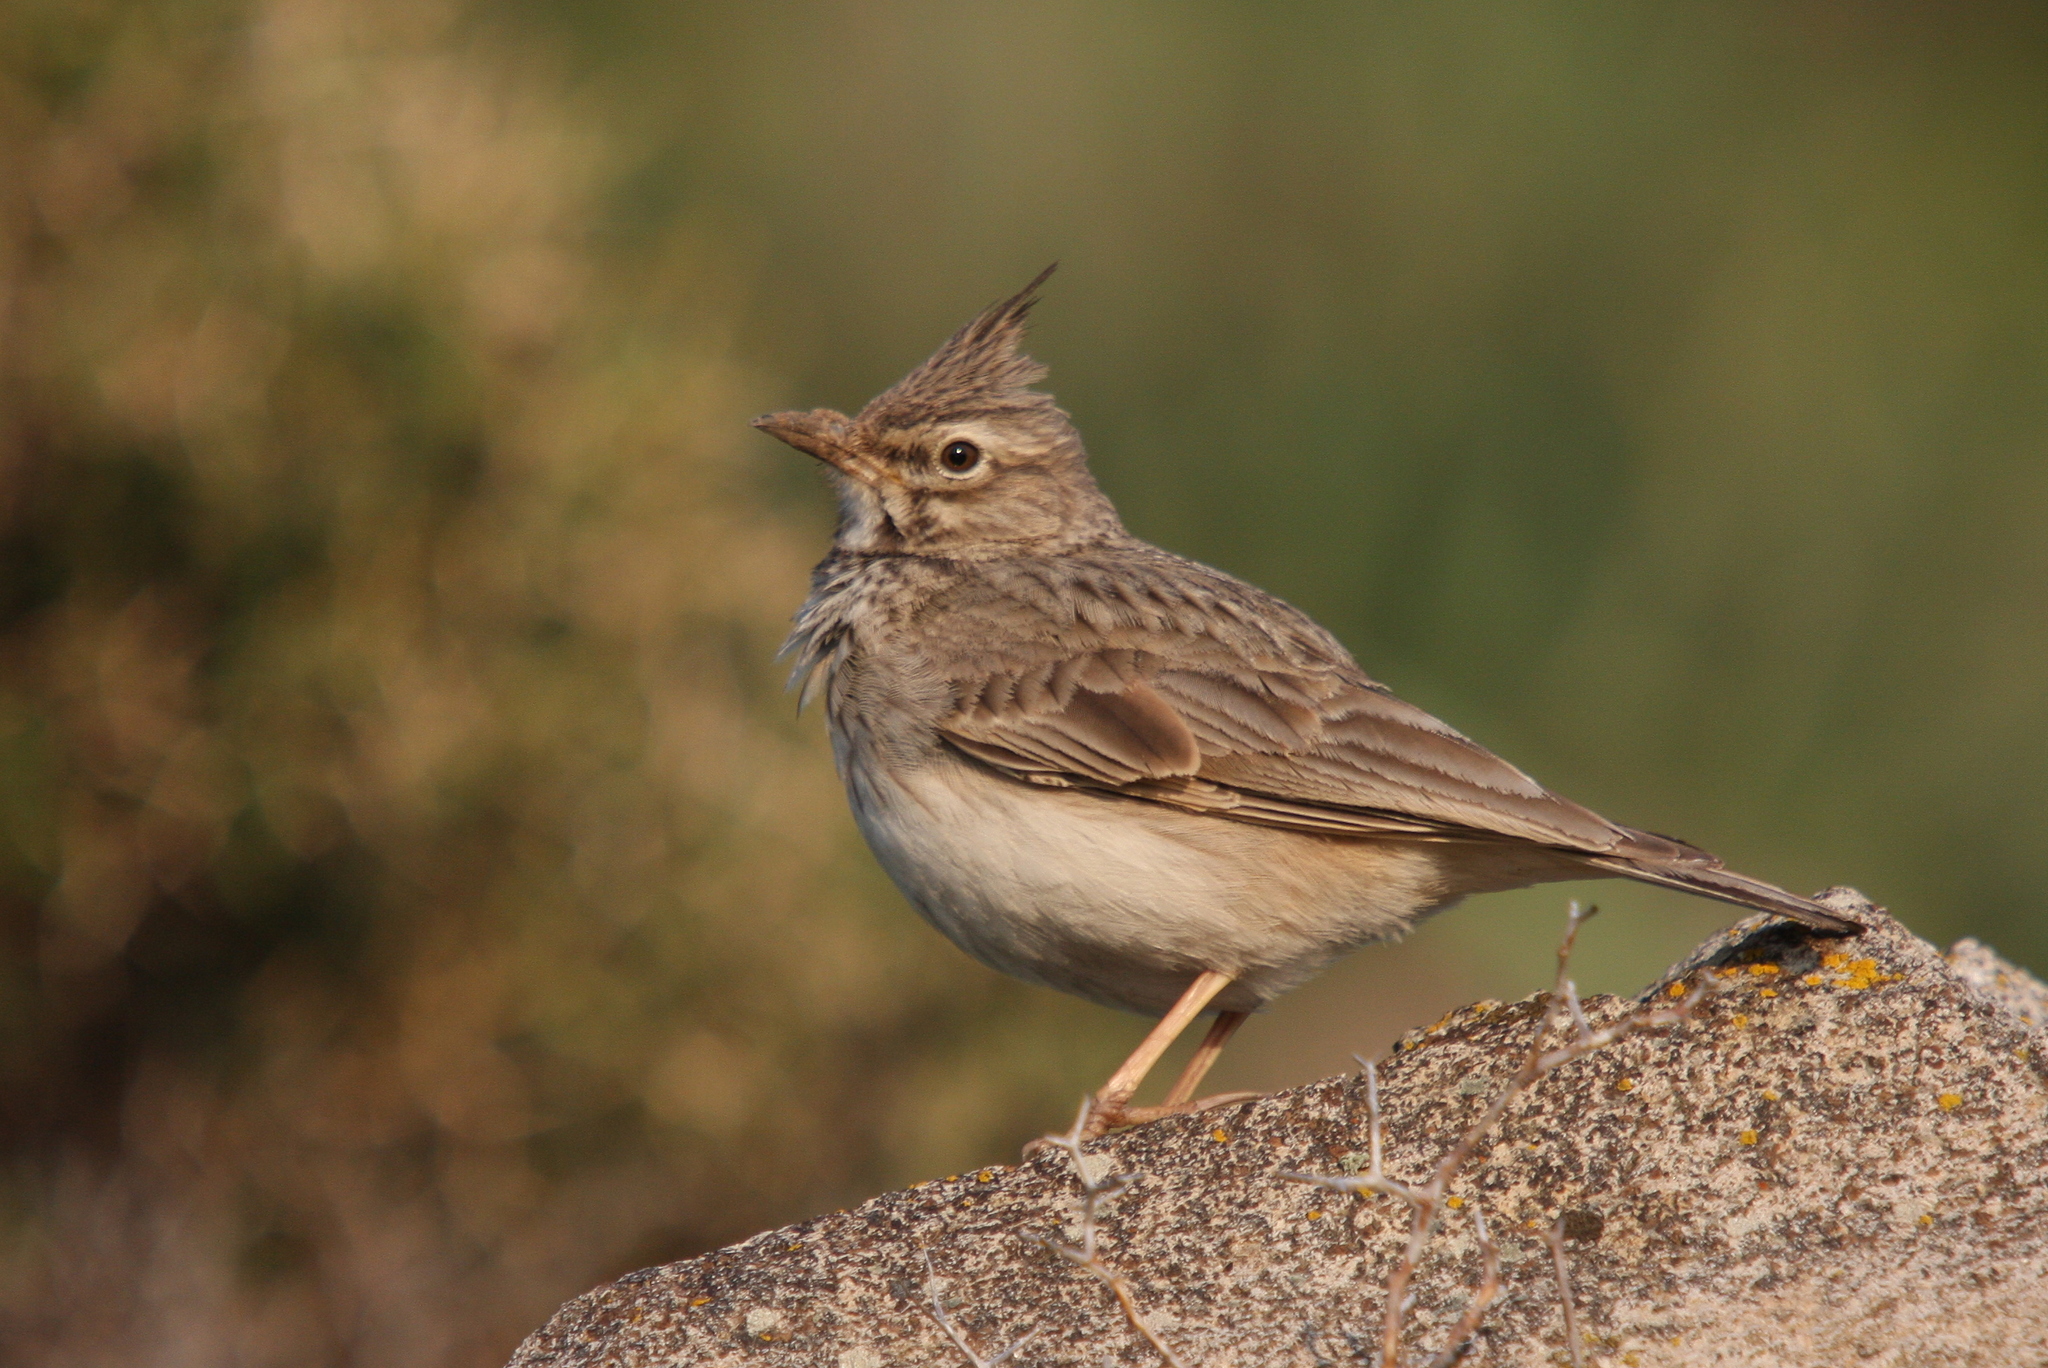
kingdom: Animalia
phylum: Chordata
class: Aves
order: Passeriformes
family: Alaudidae
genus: Galerida
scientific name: Galerida cristata
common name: Crested lark
